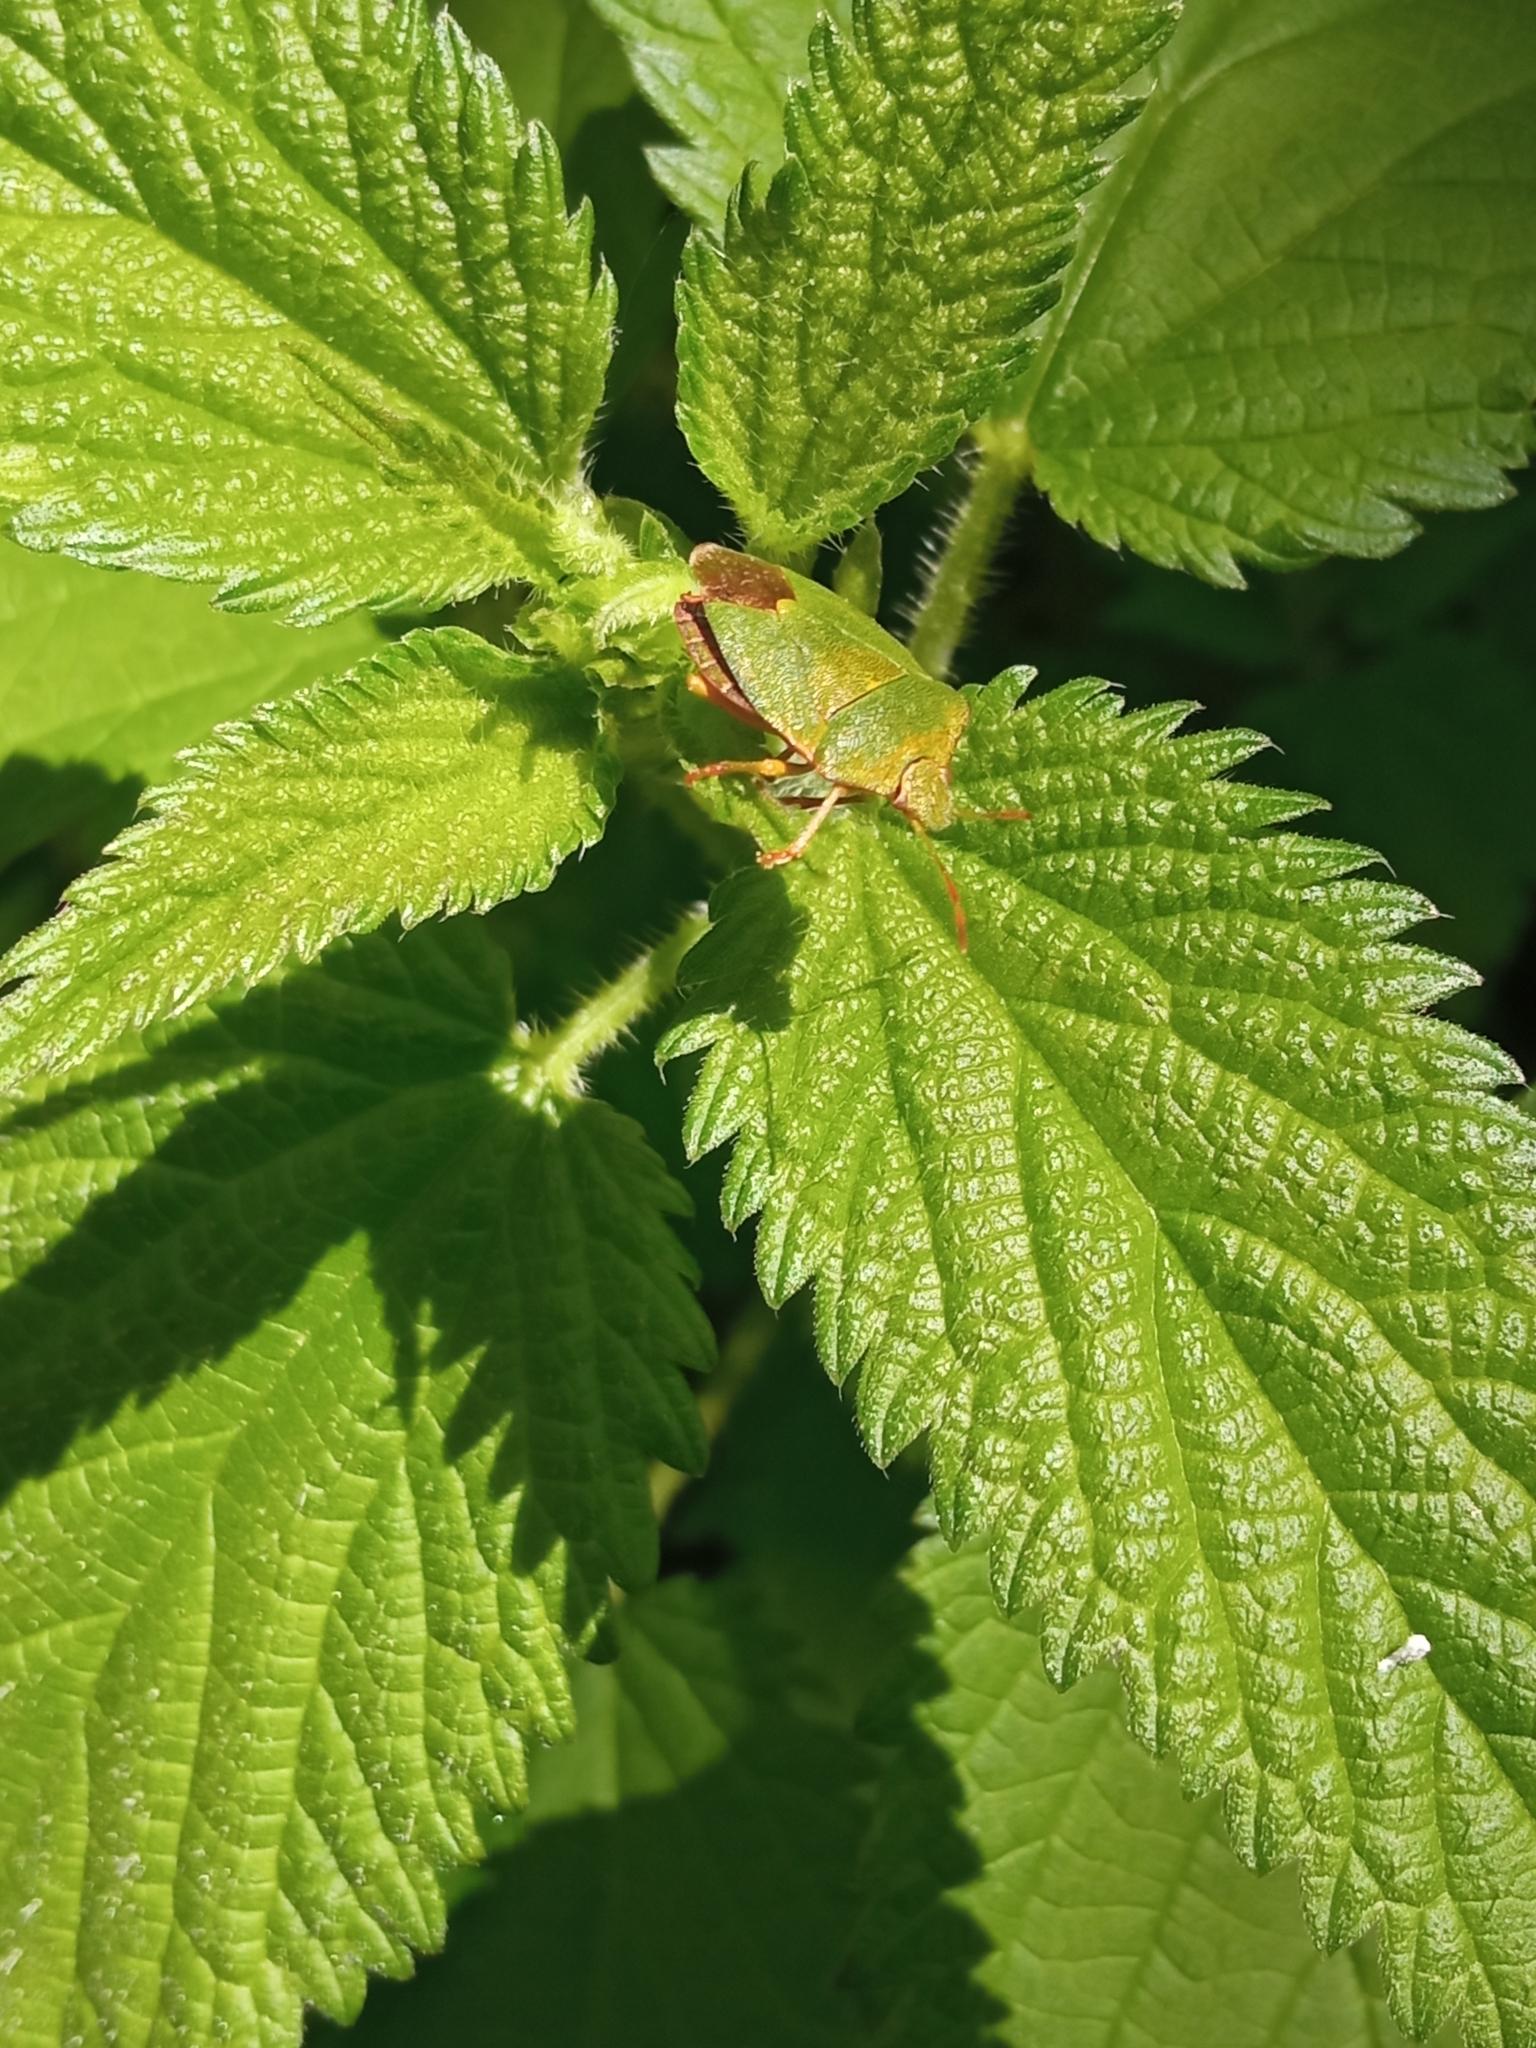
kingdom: Animalia
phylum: Arthropoda
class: Insecta
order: Hemiptera
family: Pentatomidae
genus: Palomena
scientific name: Palomena prasina
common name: Green shieldbug
